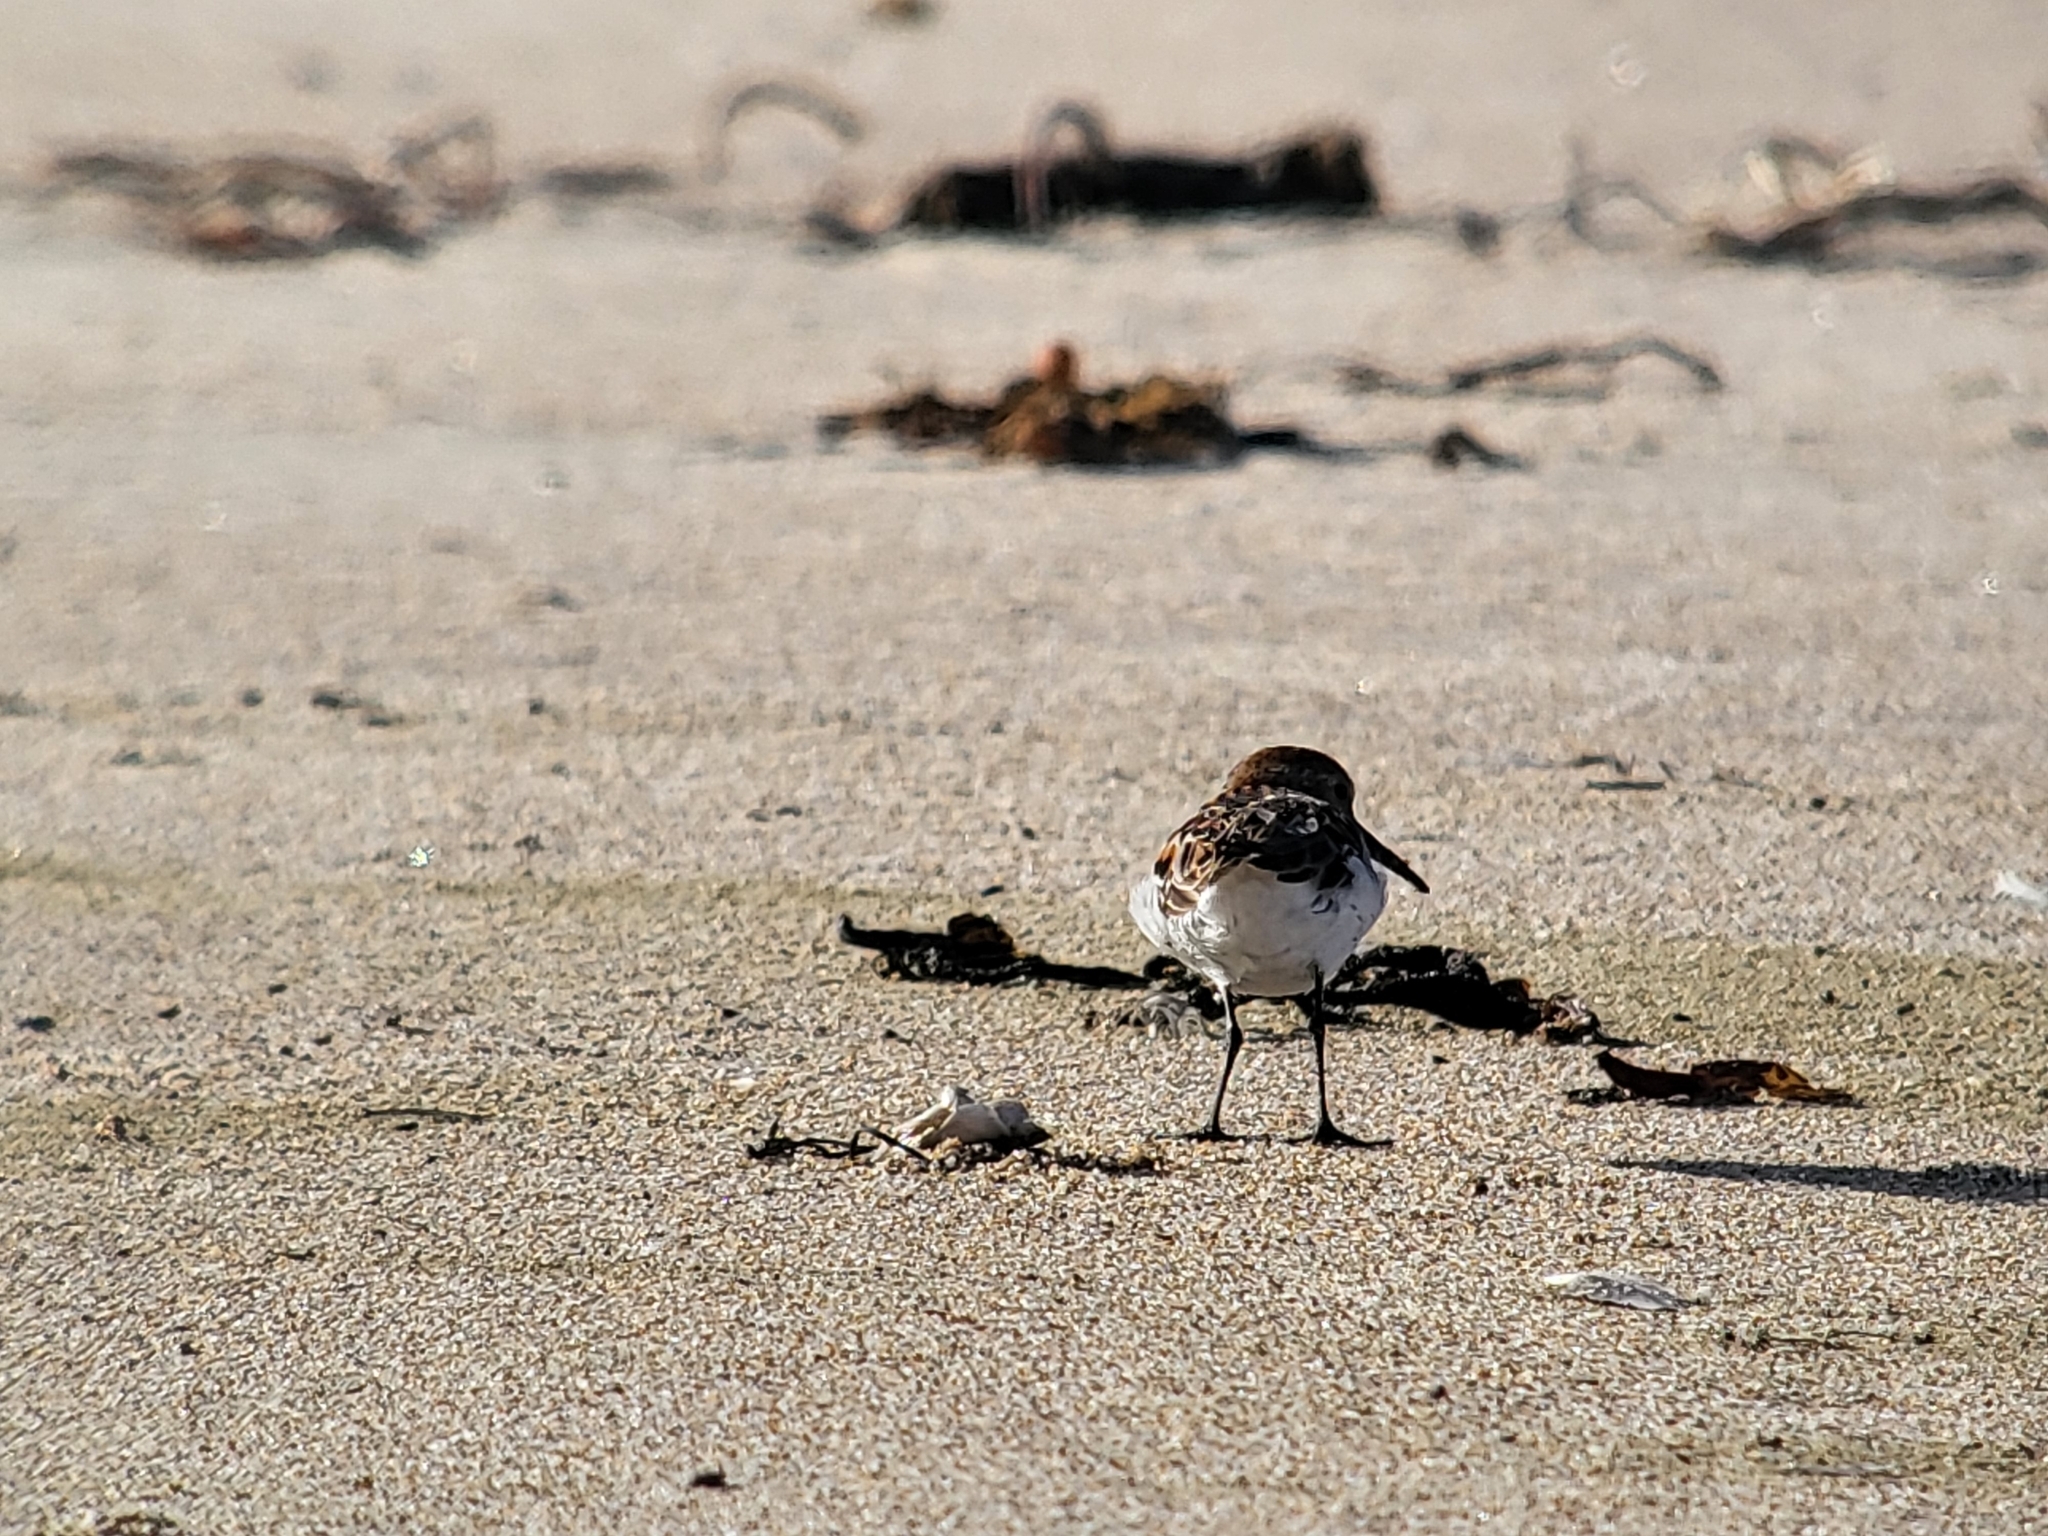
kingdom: Animalia
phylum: Chordata
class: Aves
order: Charadriiformes
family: Scolopacidae
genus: Calidris
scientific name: Calidris mauri
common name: Western sandpiper
